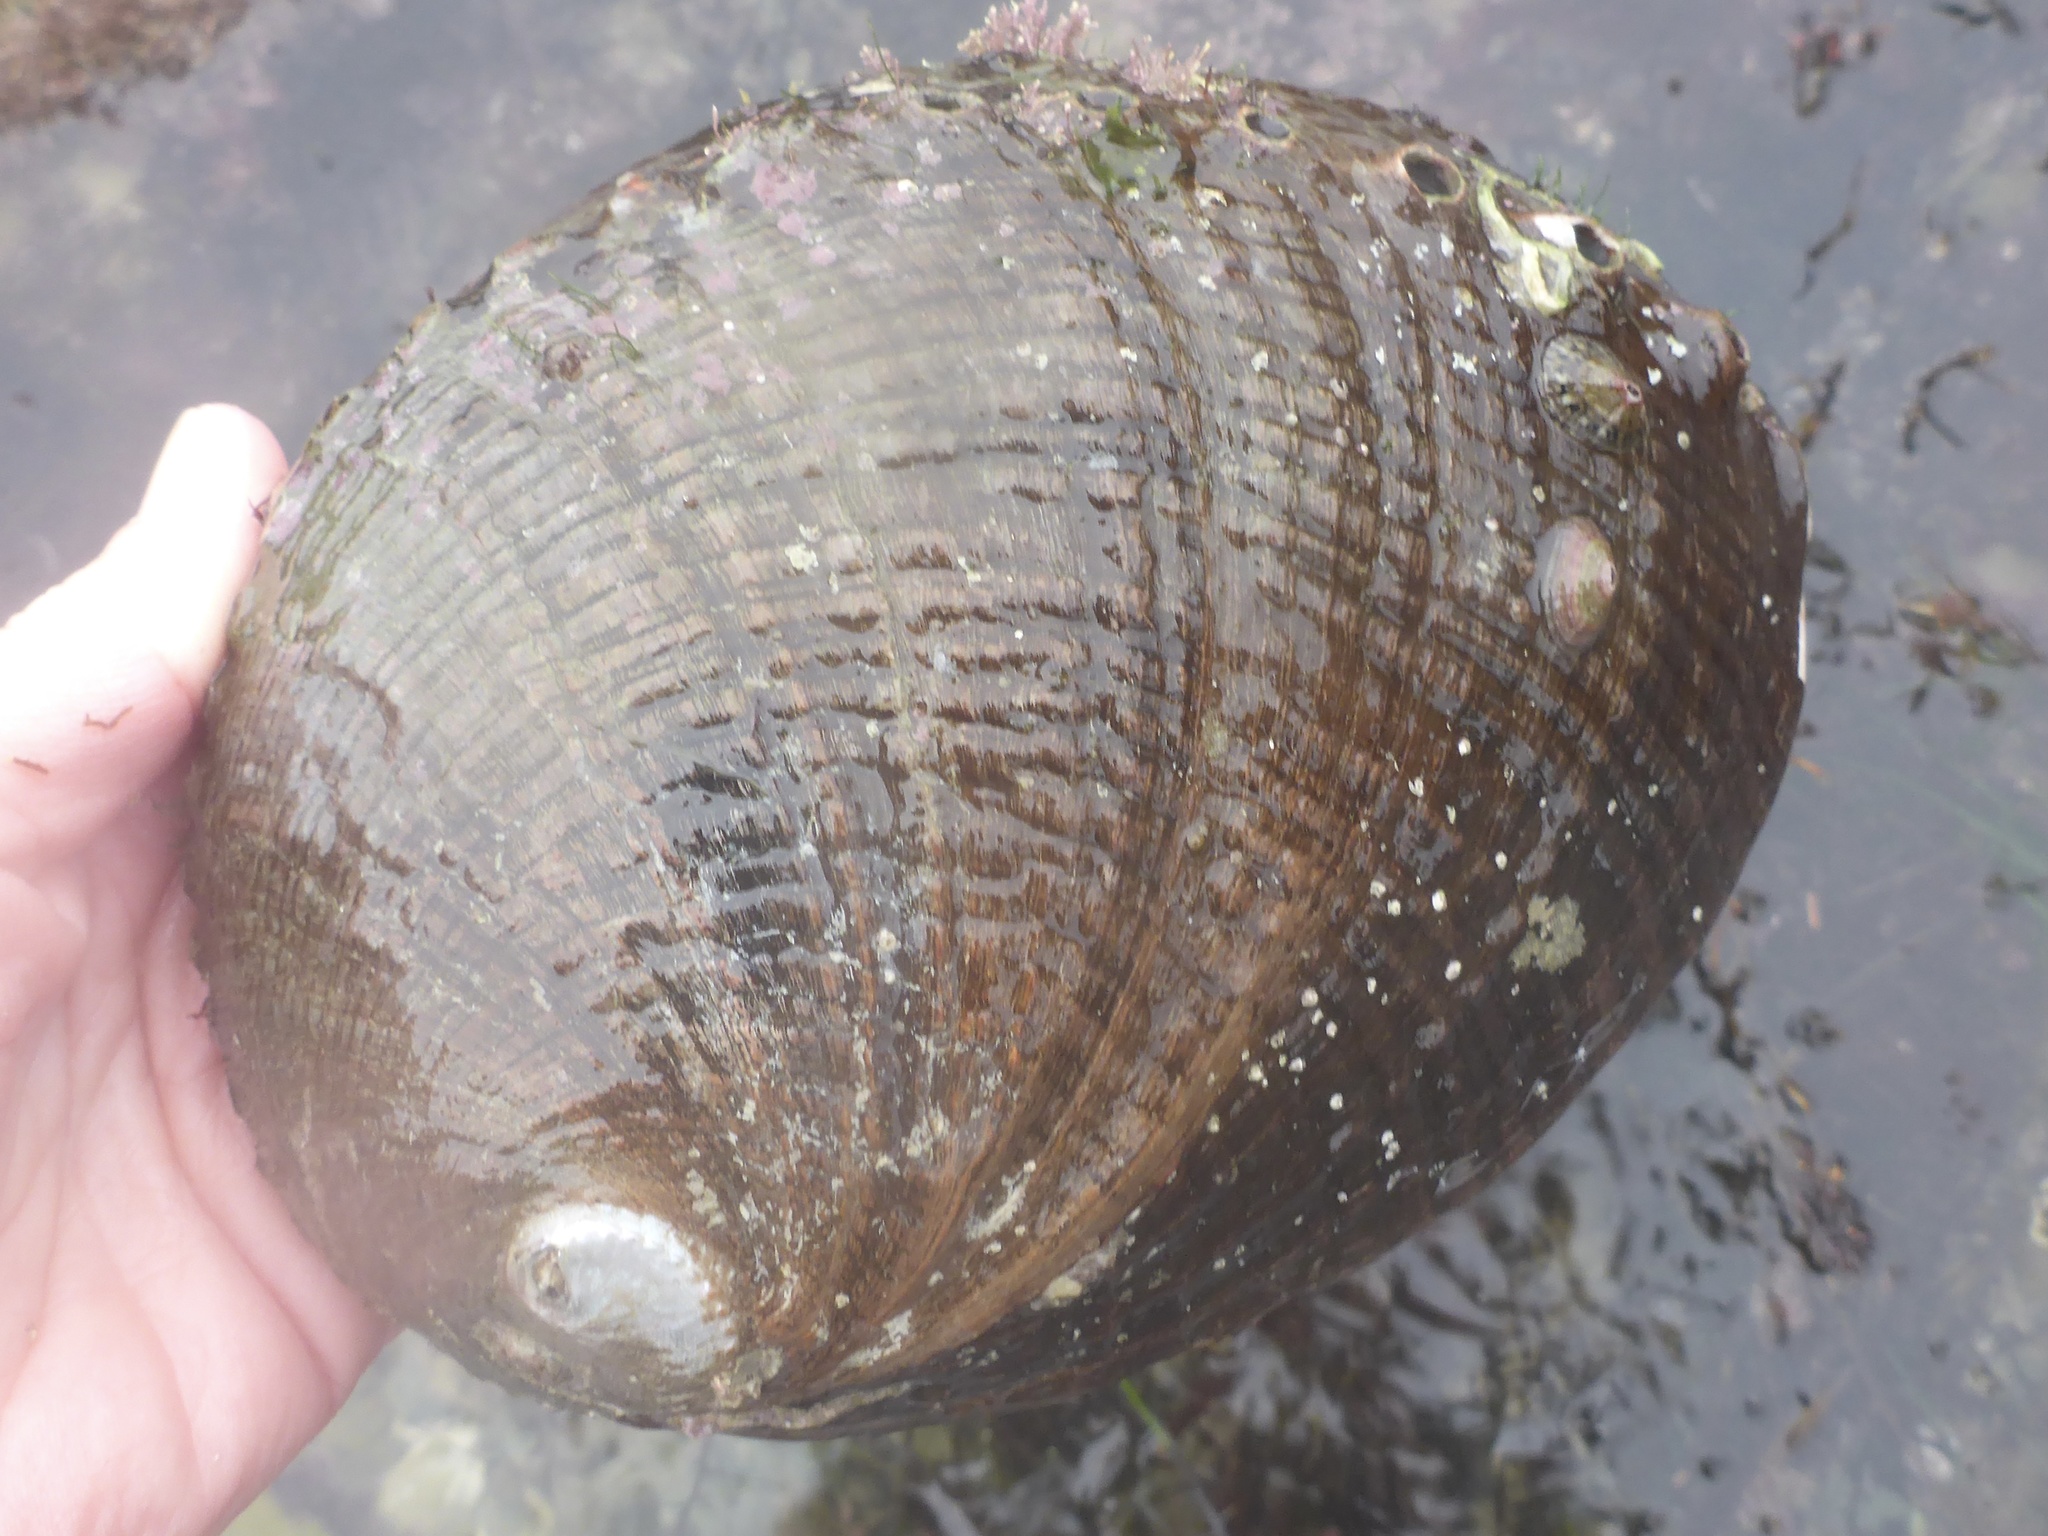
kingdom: Animalia
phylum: Mollusca
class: Gastropoda
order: Lepetellida
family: Haliotidae
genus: Haliotis
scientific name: Haliotis fulgens
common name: Green abalone
